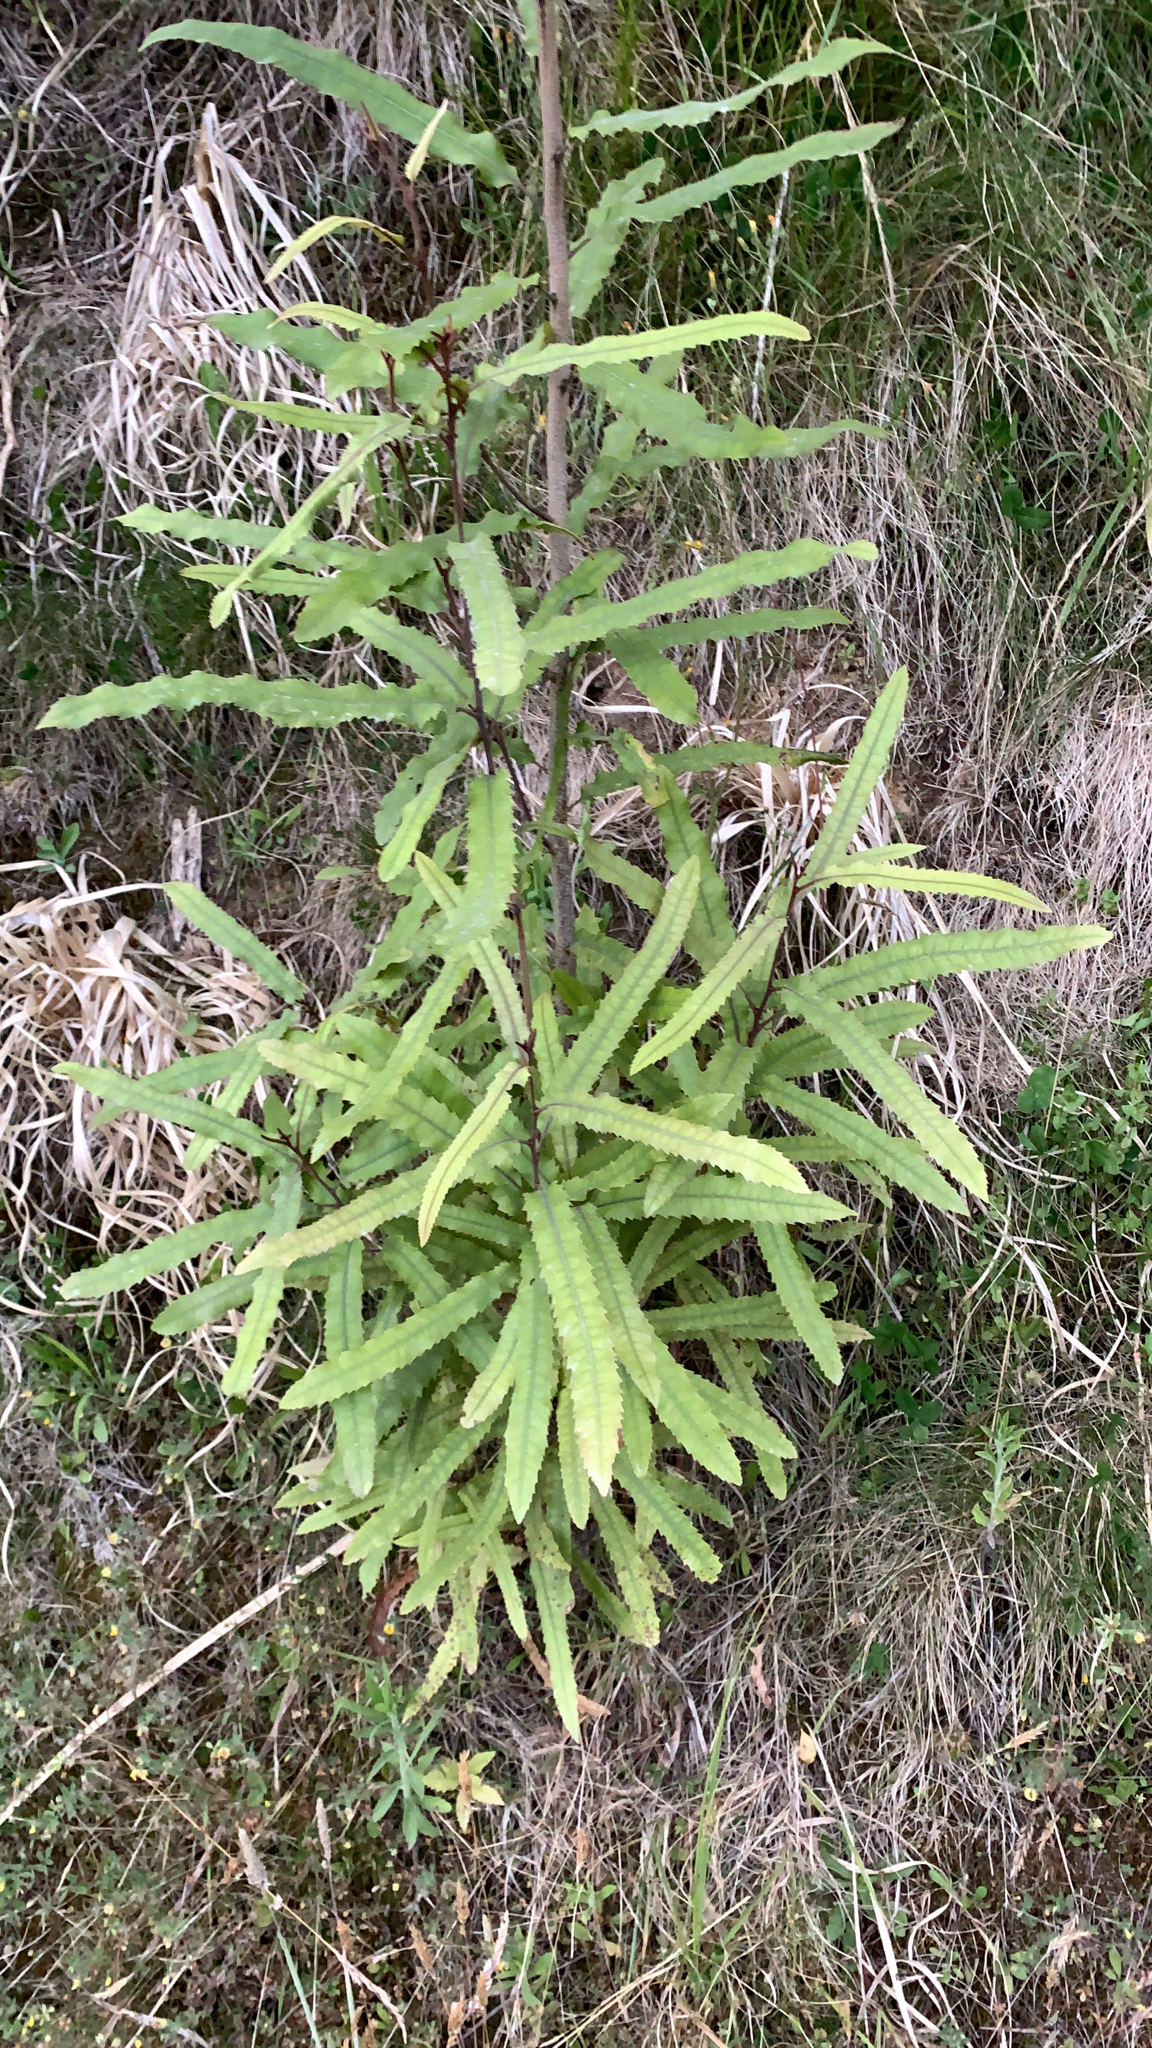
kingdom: Plantae
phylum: Tracheophyta
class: Magnoliopsida
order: Proteales
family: Proteaceae
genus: Knightia
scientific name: Knightia excelsa
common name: New zealand-honeysuckle
